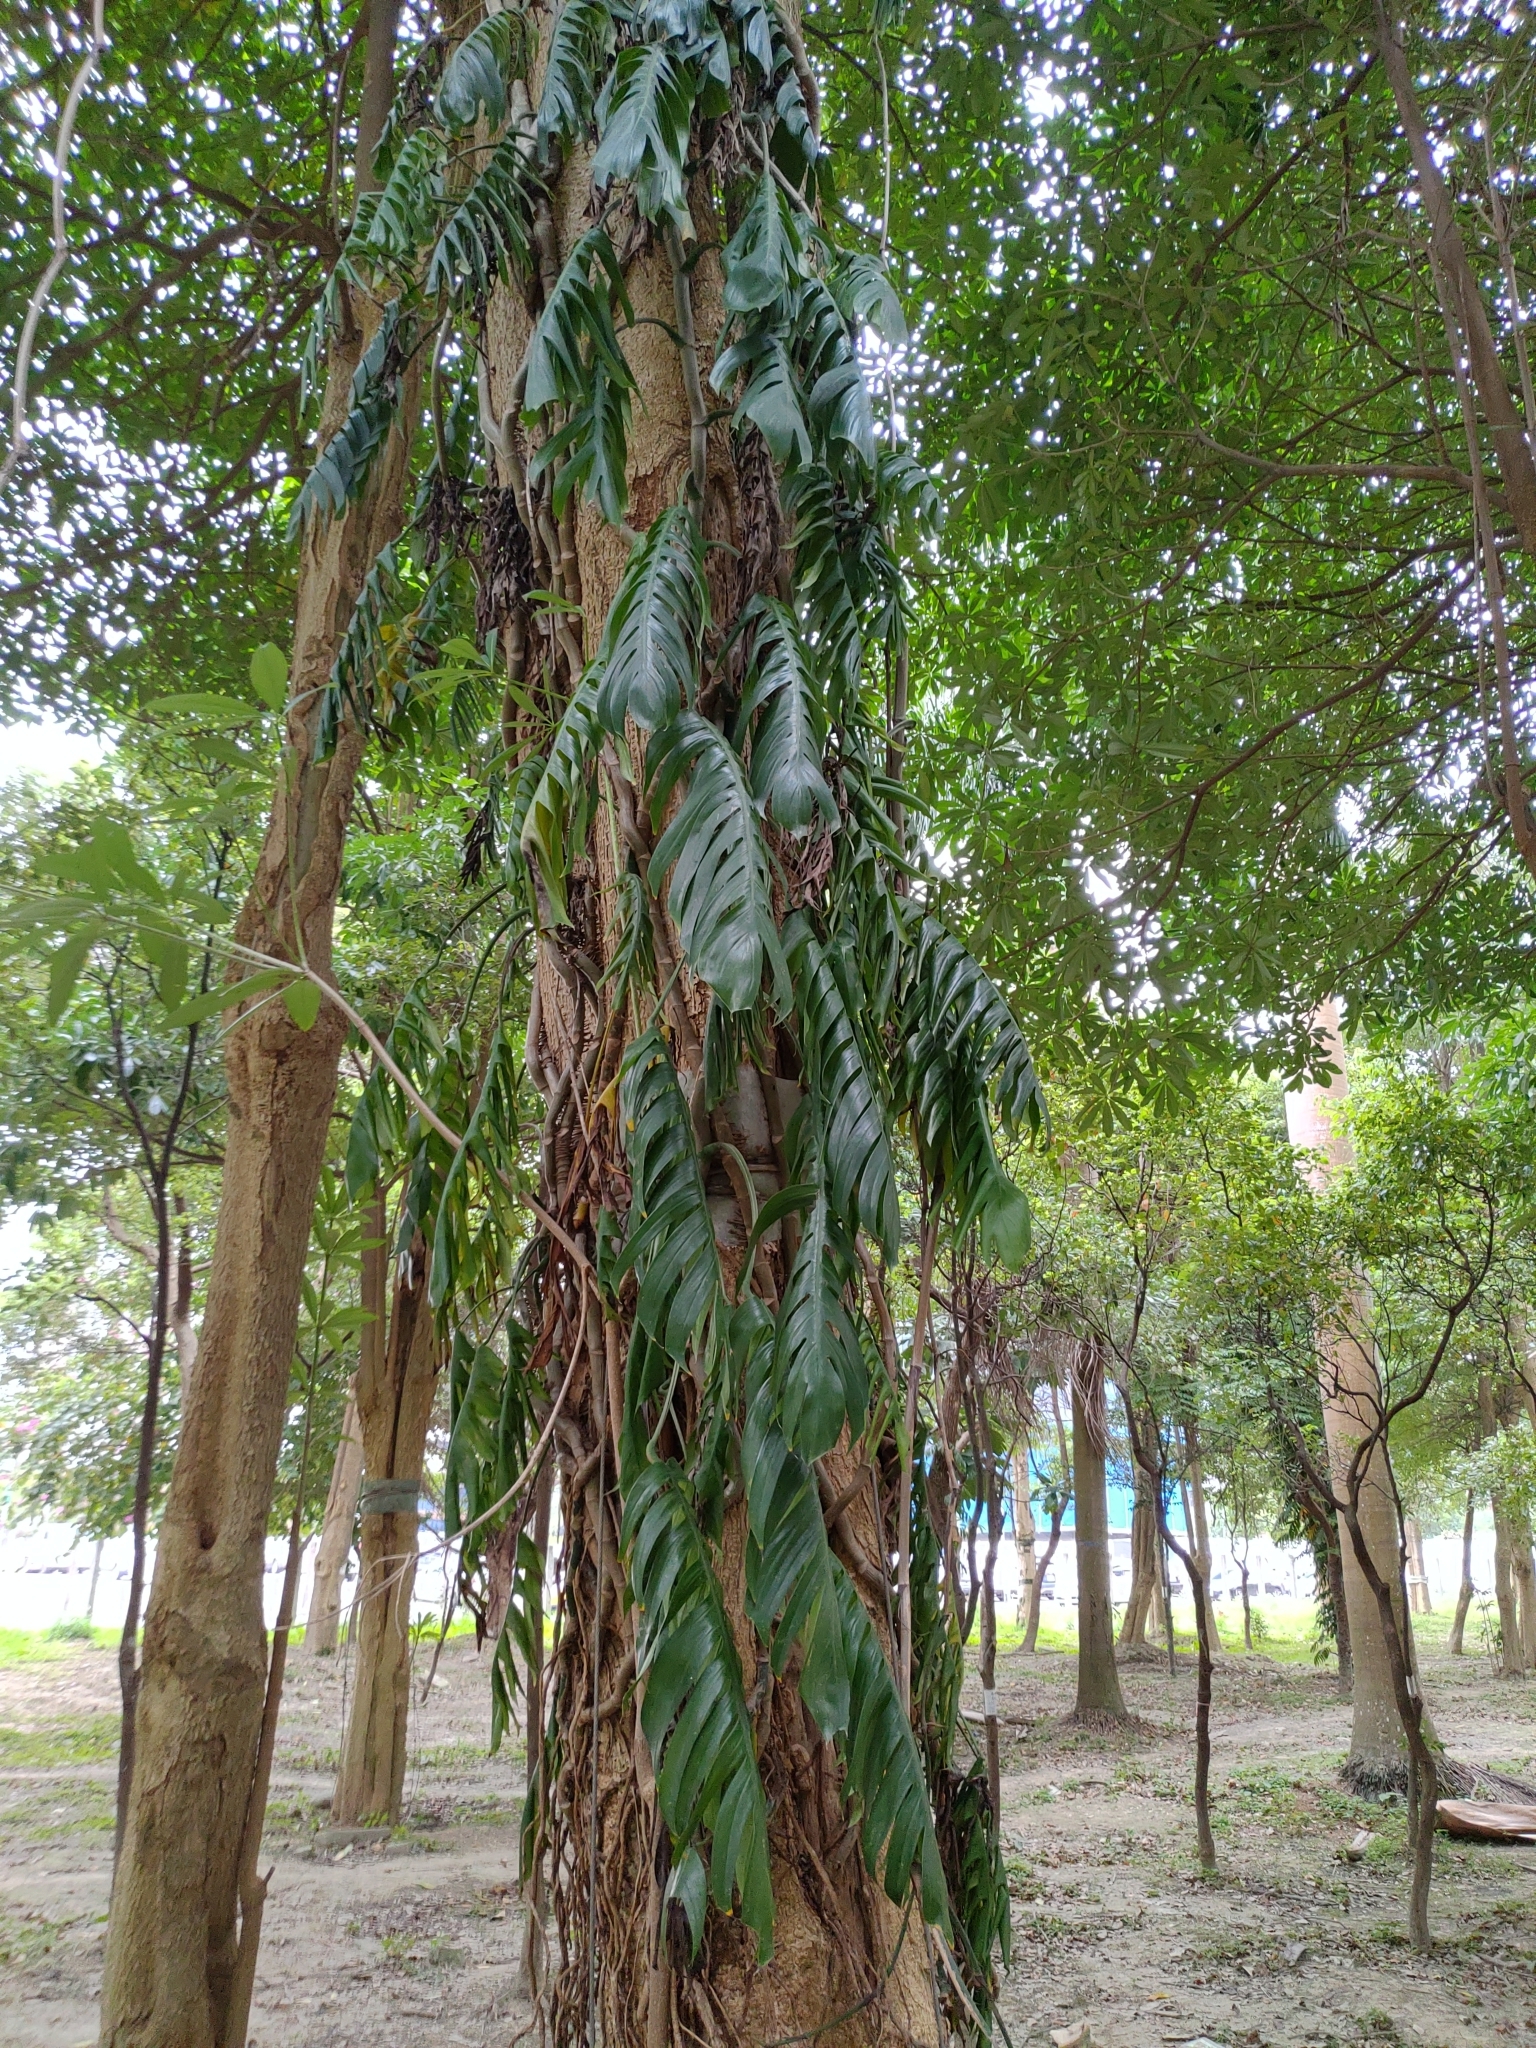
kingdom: Plantae
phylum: Tracheophyta
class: Liliopsida
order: Alismatales
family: Araceae
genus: Epipremnum
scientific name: Epipremnum pinnatum
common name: Centipede tongavine
